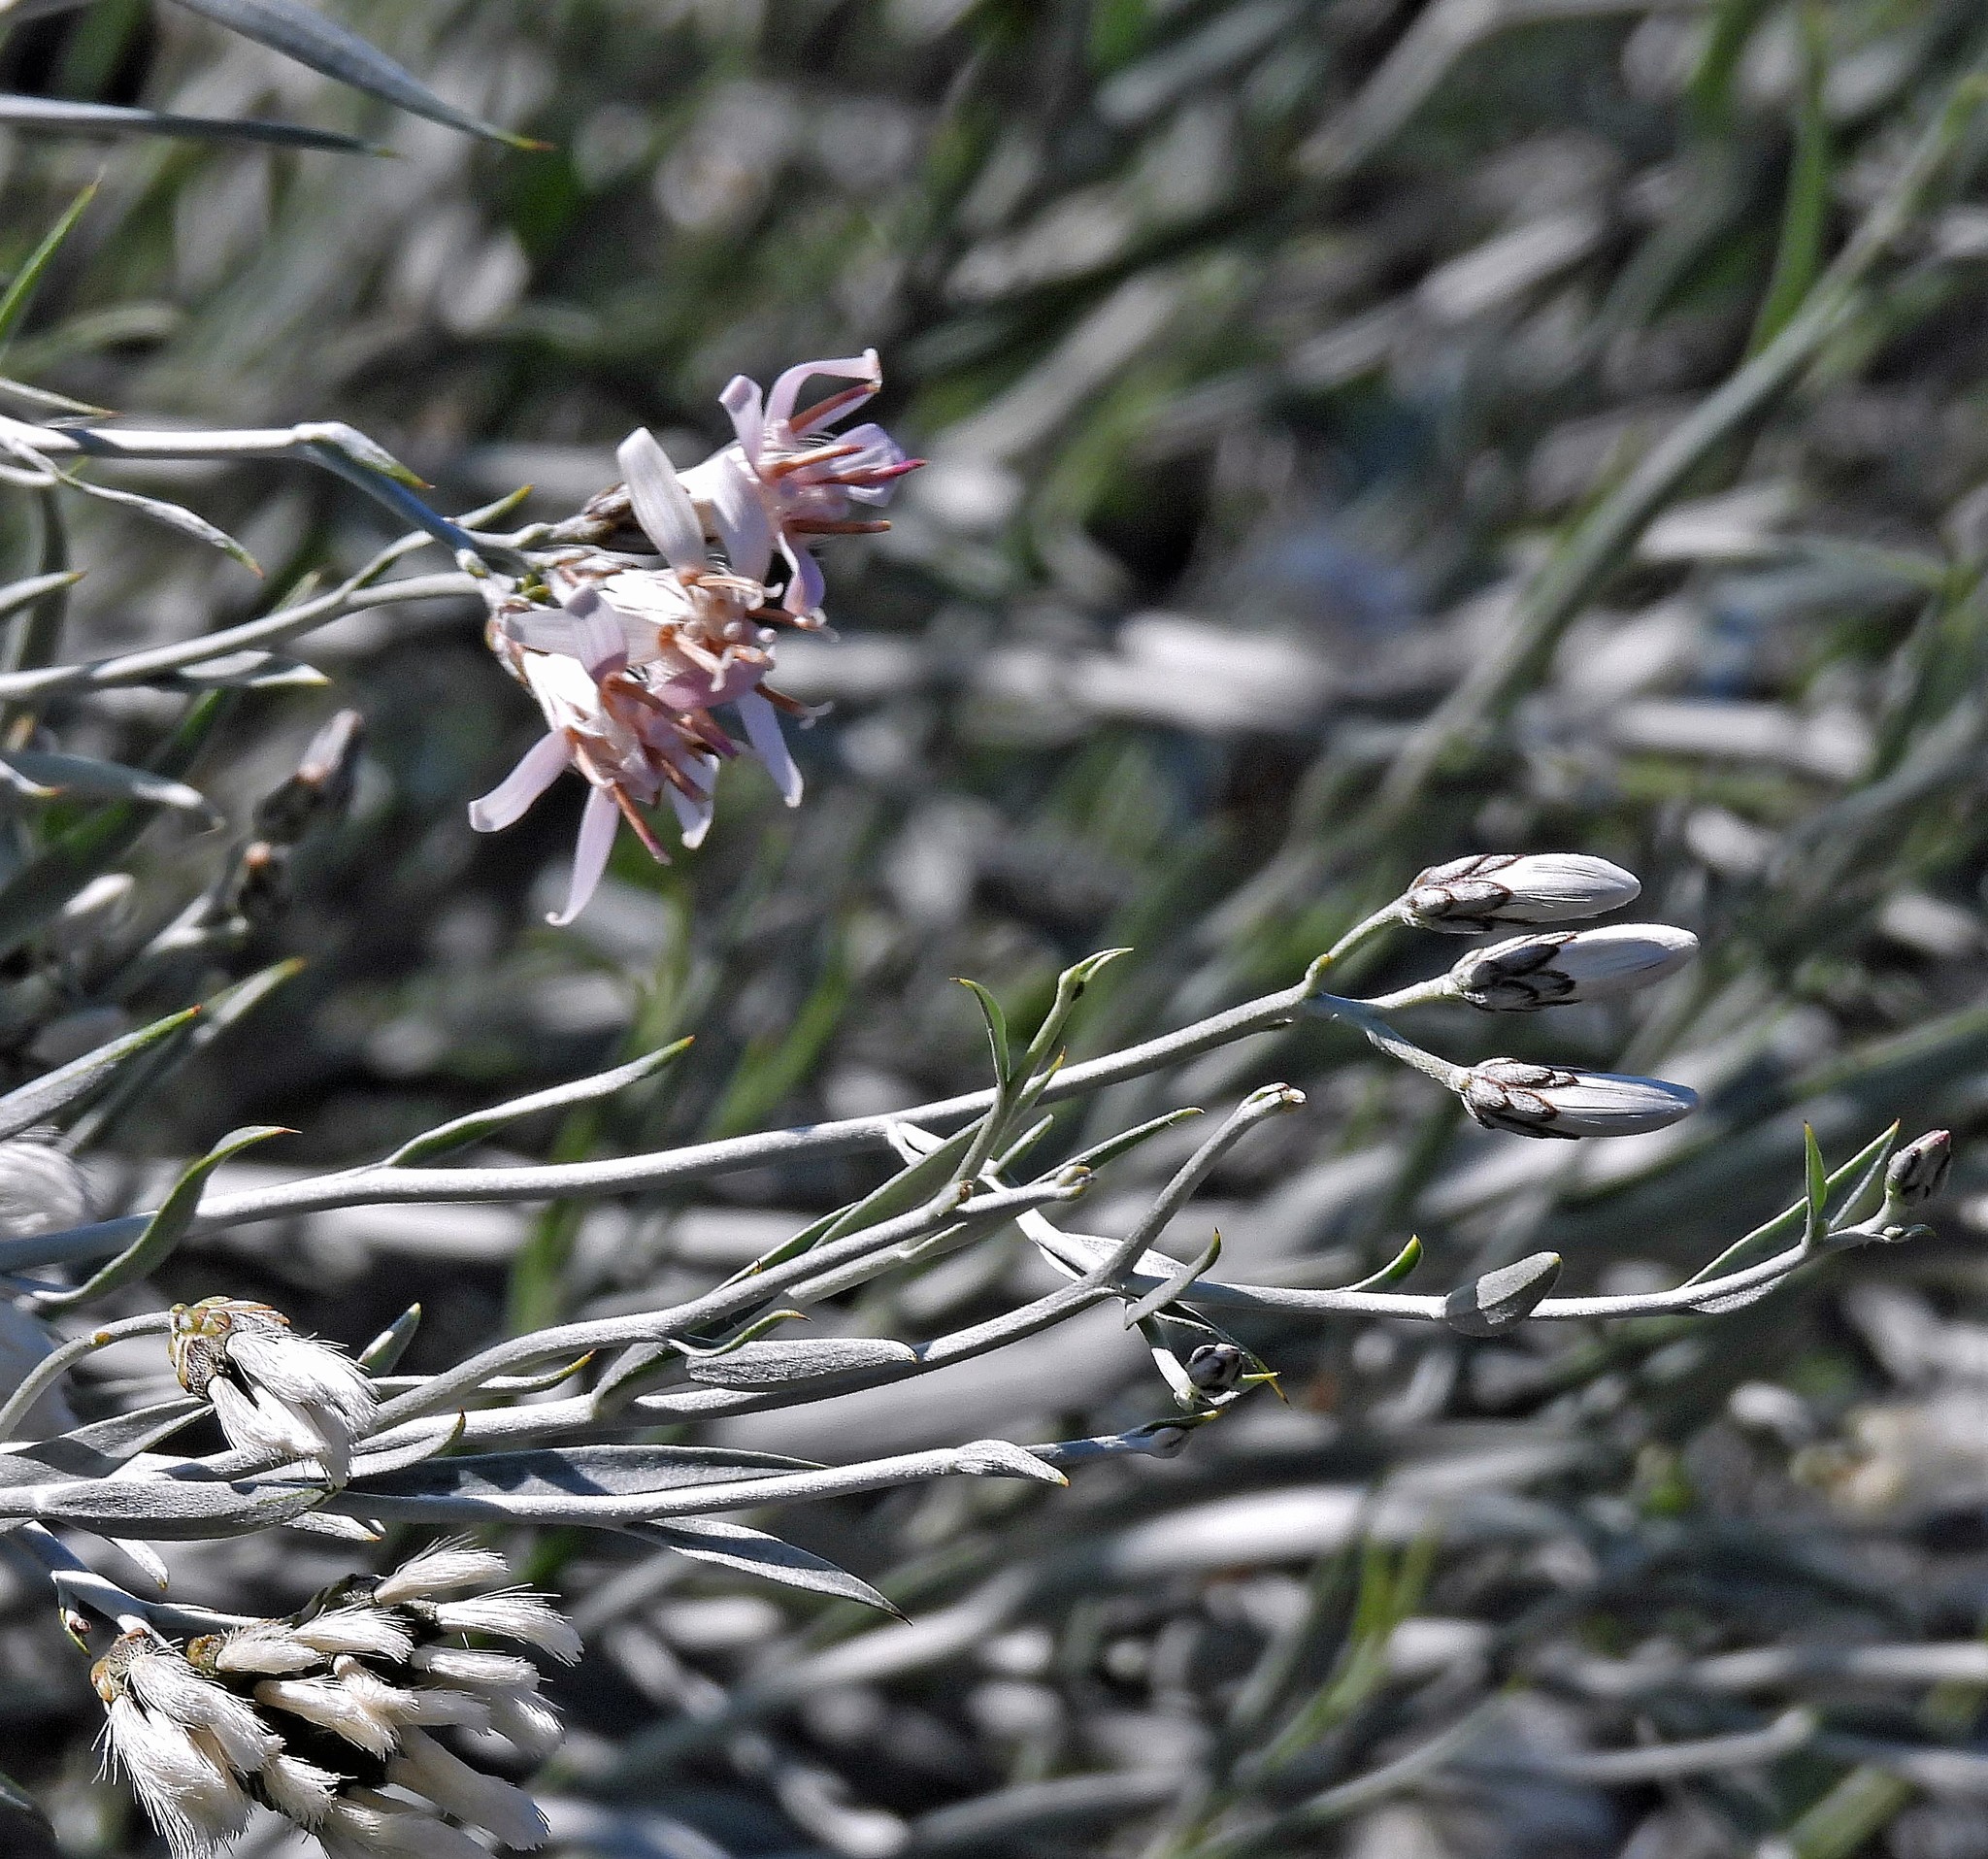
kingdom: Plantae
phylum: Tracheophyta
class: Magnoliopsida
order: Asterales
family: Asteraceae
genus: Hyalis
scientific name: Hyalis argentea
